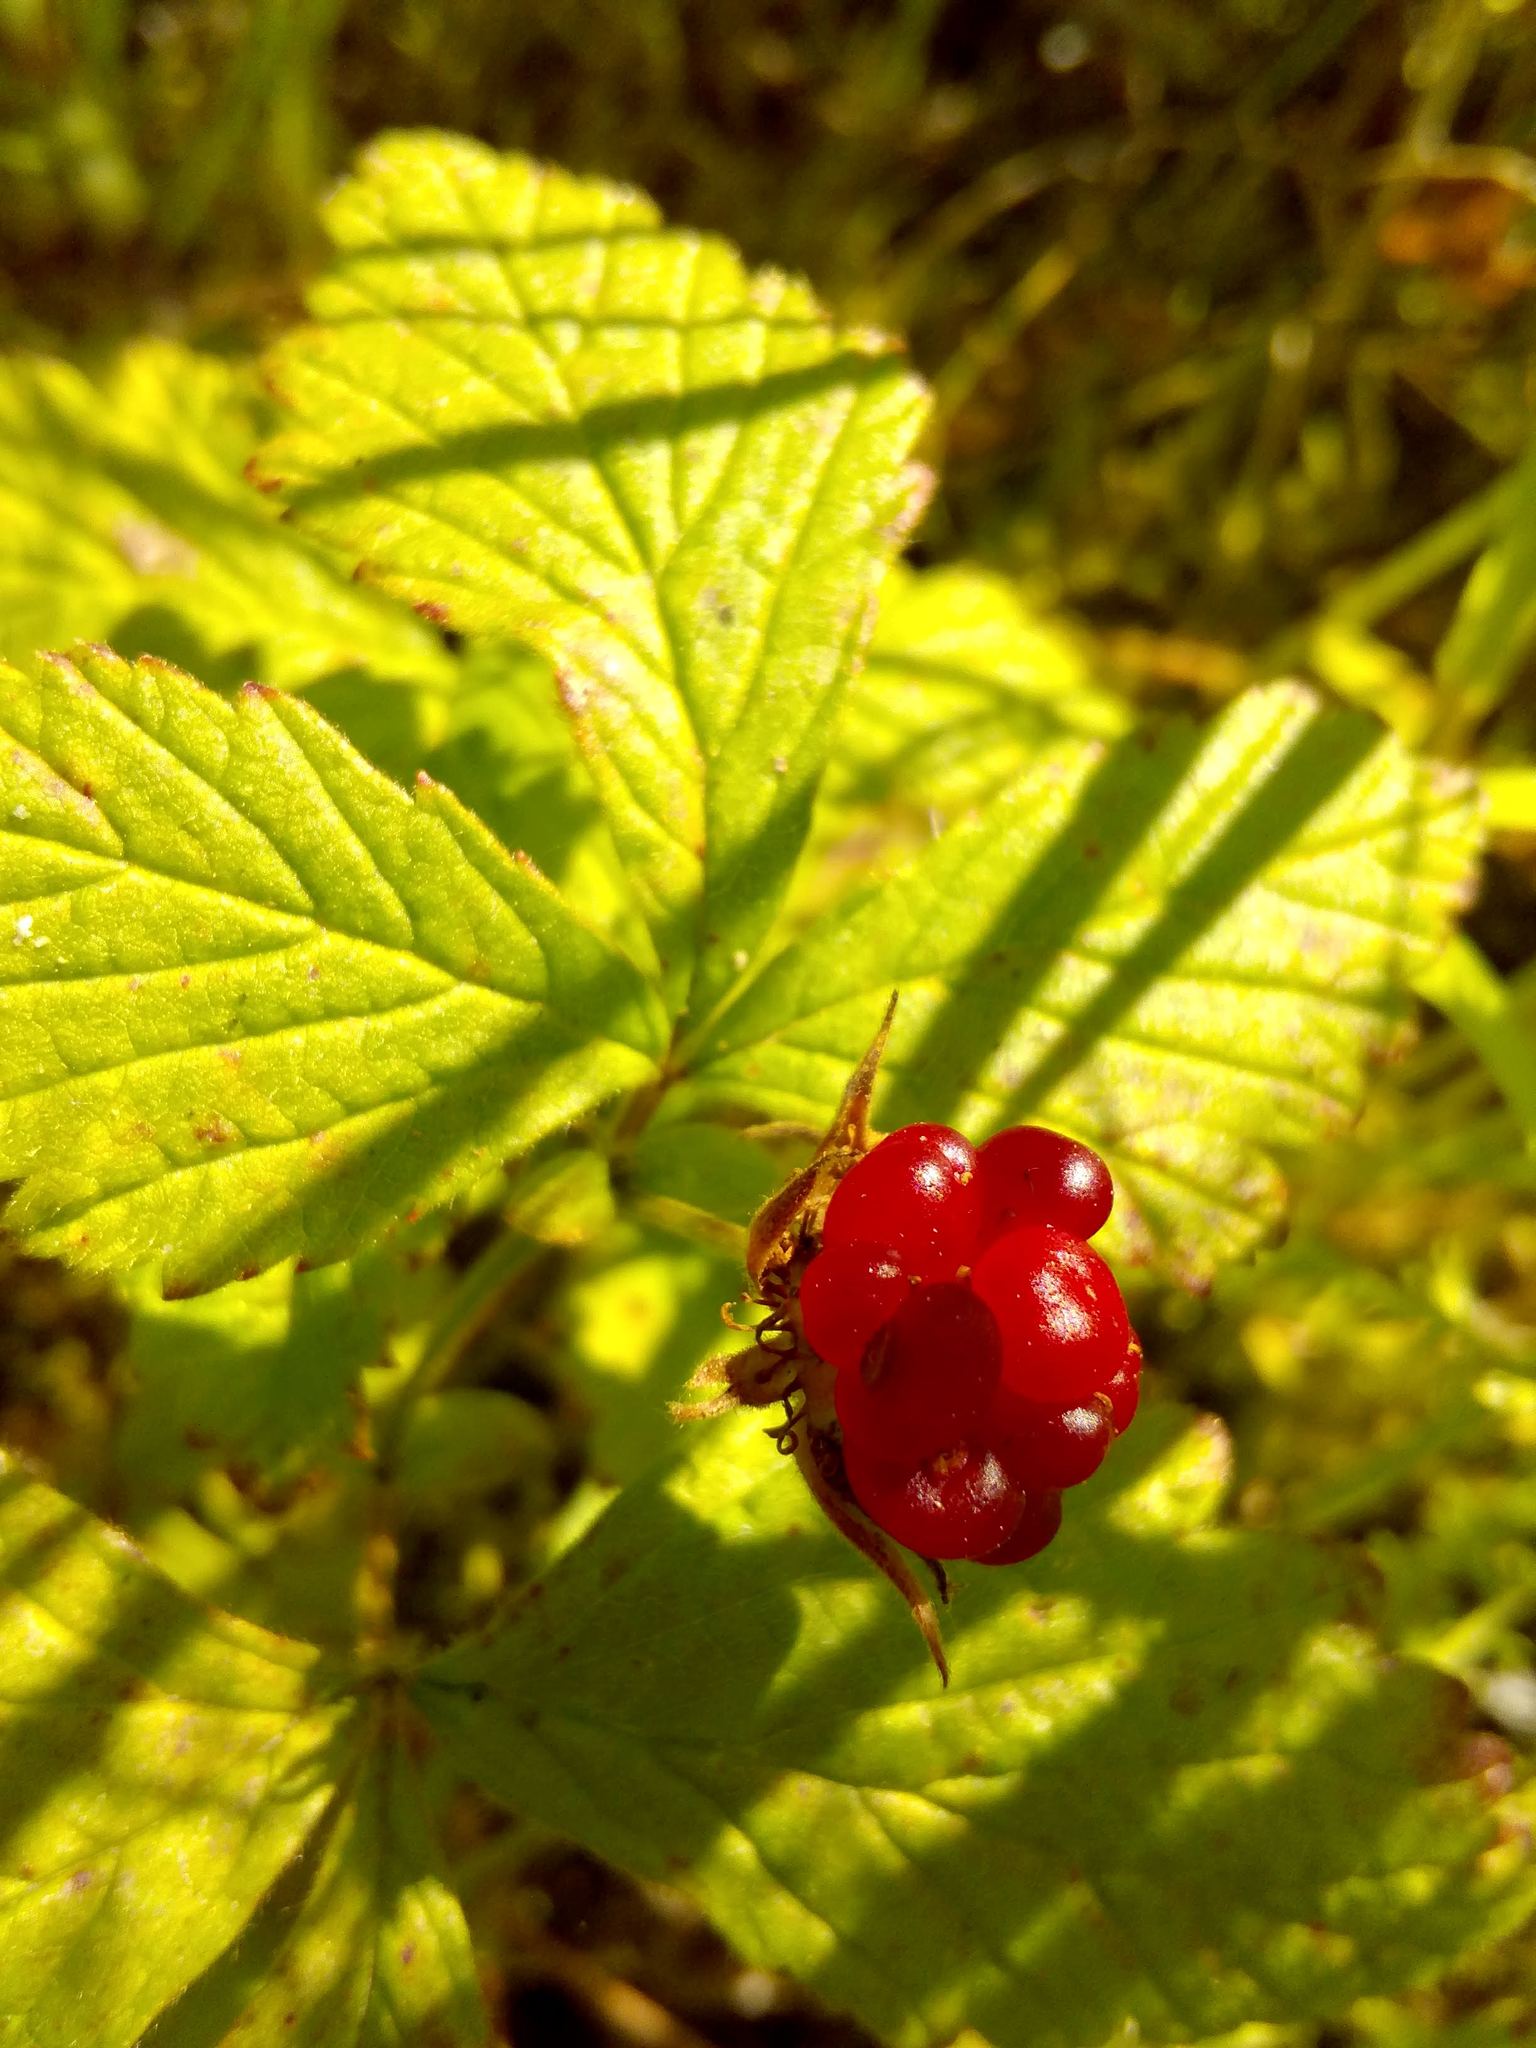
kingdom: Plantae
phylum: Tracheophyta
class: Magnoliopsida
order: Rosales
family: Rosaceae
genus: Rubus
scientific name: Rubus arcticus
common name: Arctic bramble
